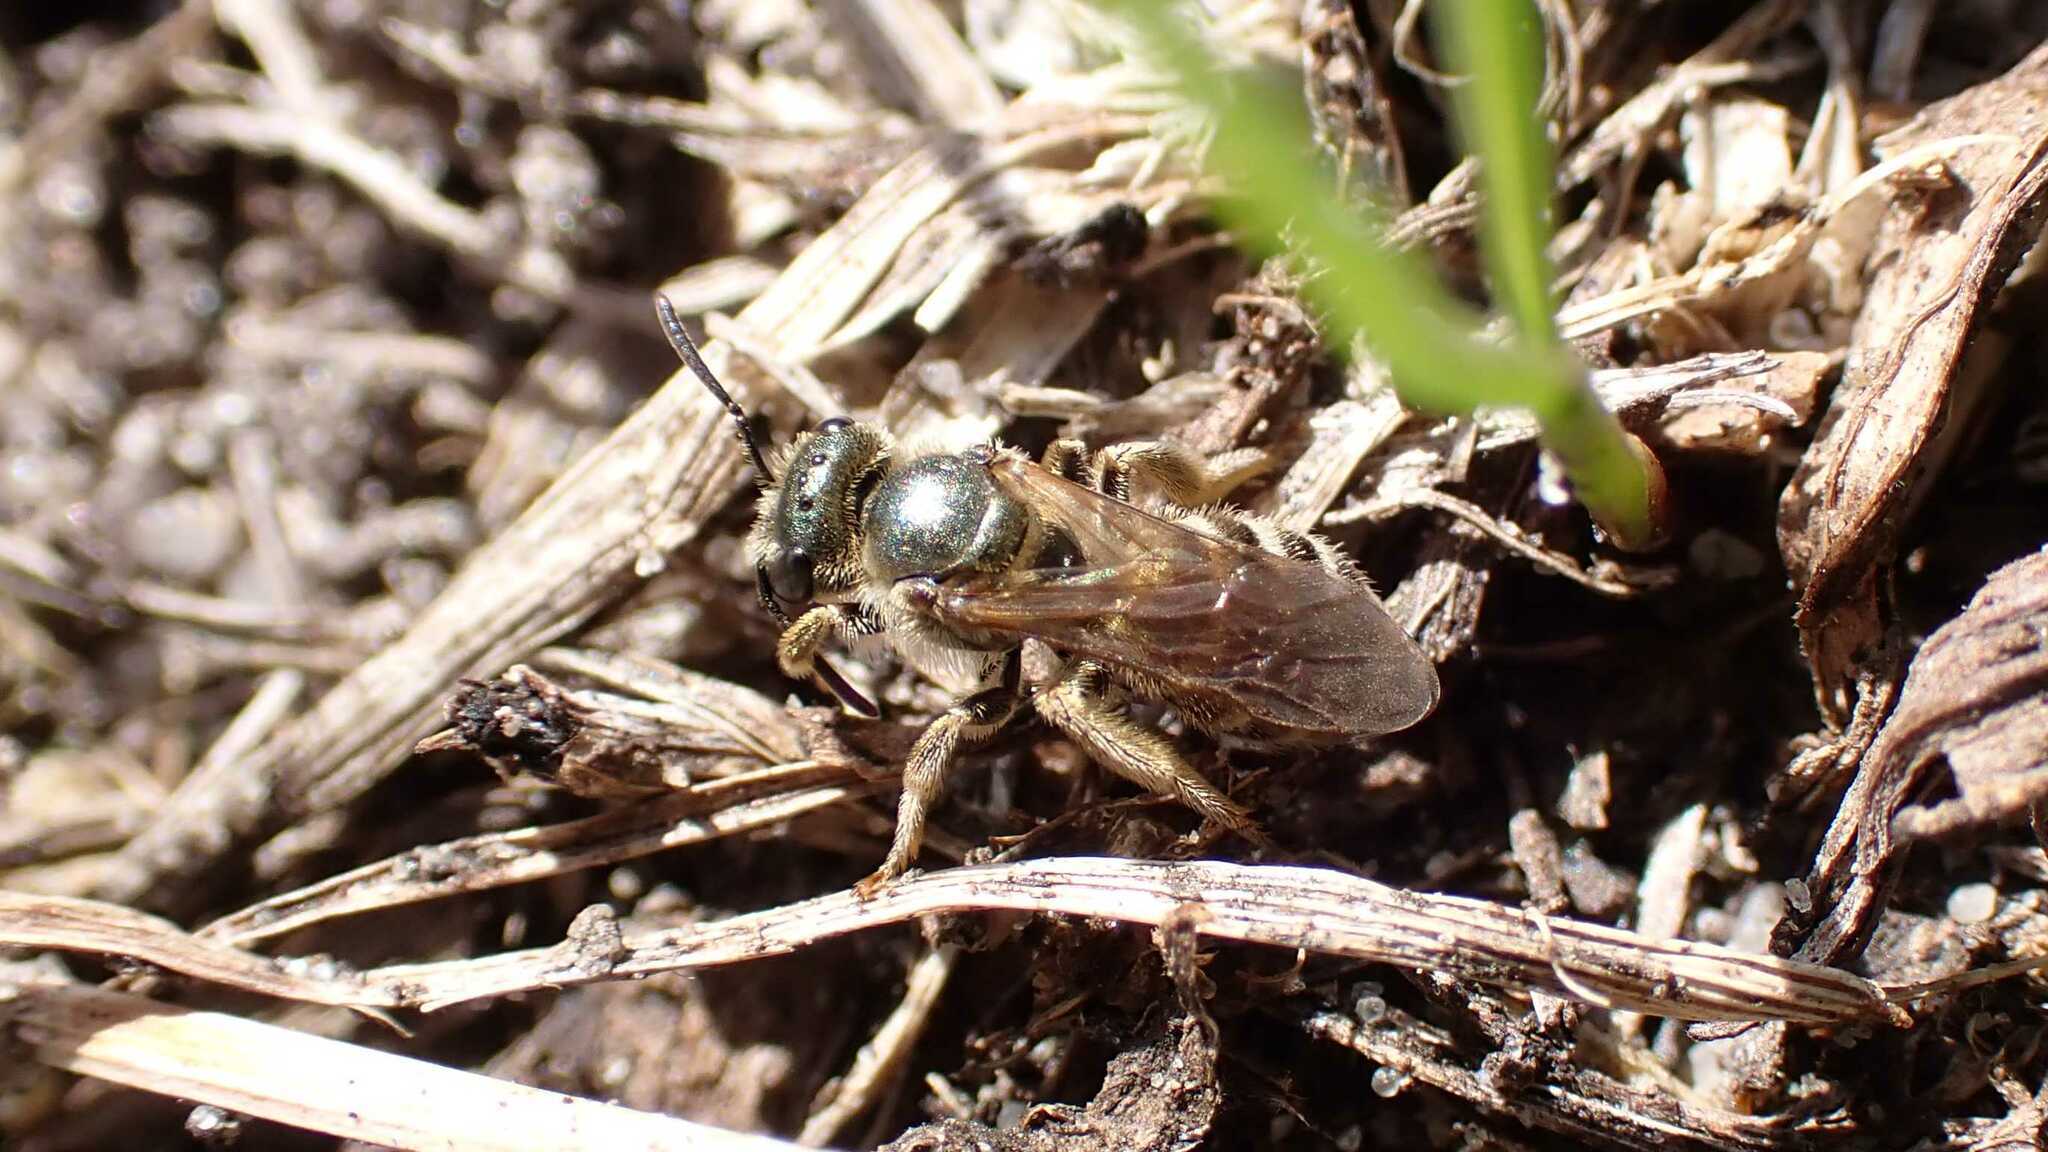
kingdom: Animalia
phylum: Arthropoda
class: Insecta
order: Hymenoptera
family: Halictidae
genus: Seladonia
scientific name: Seladonia
